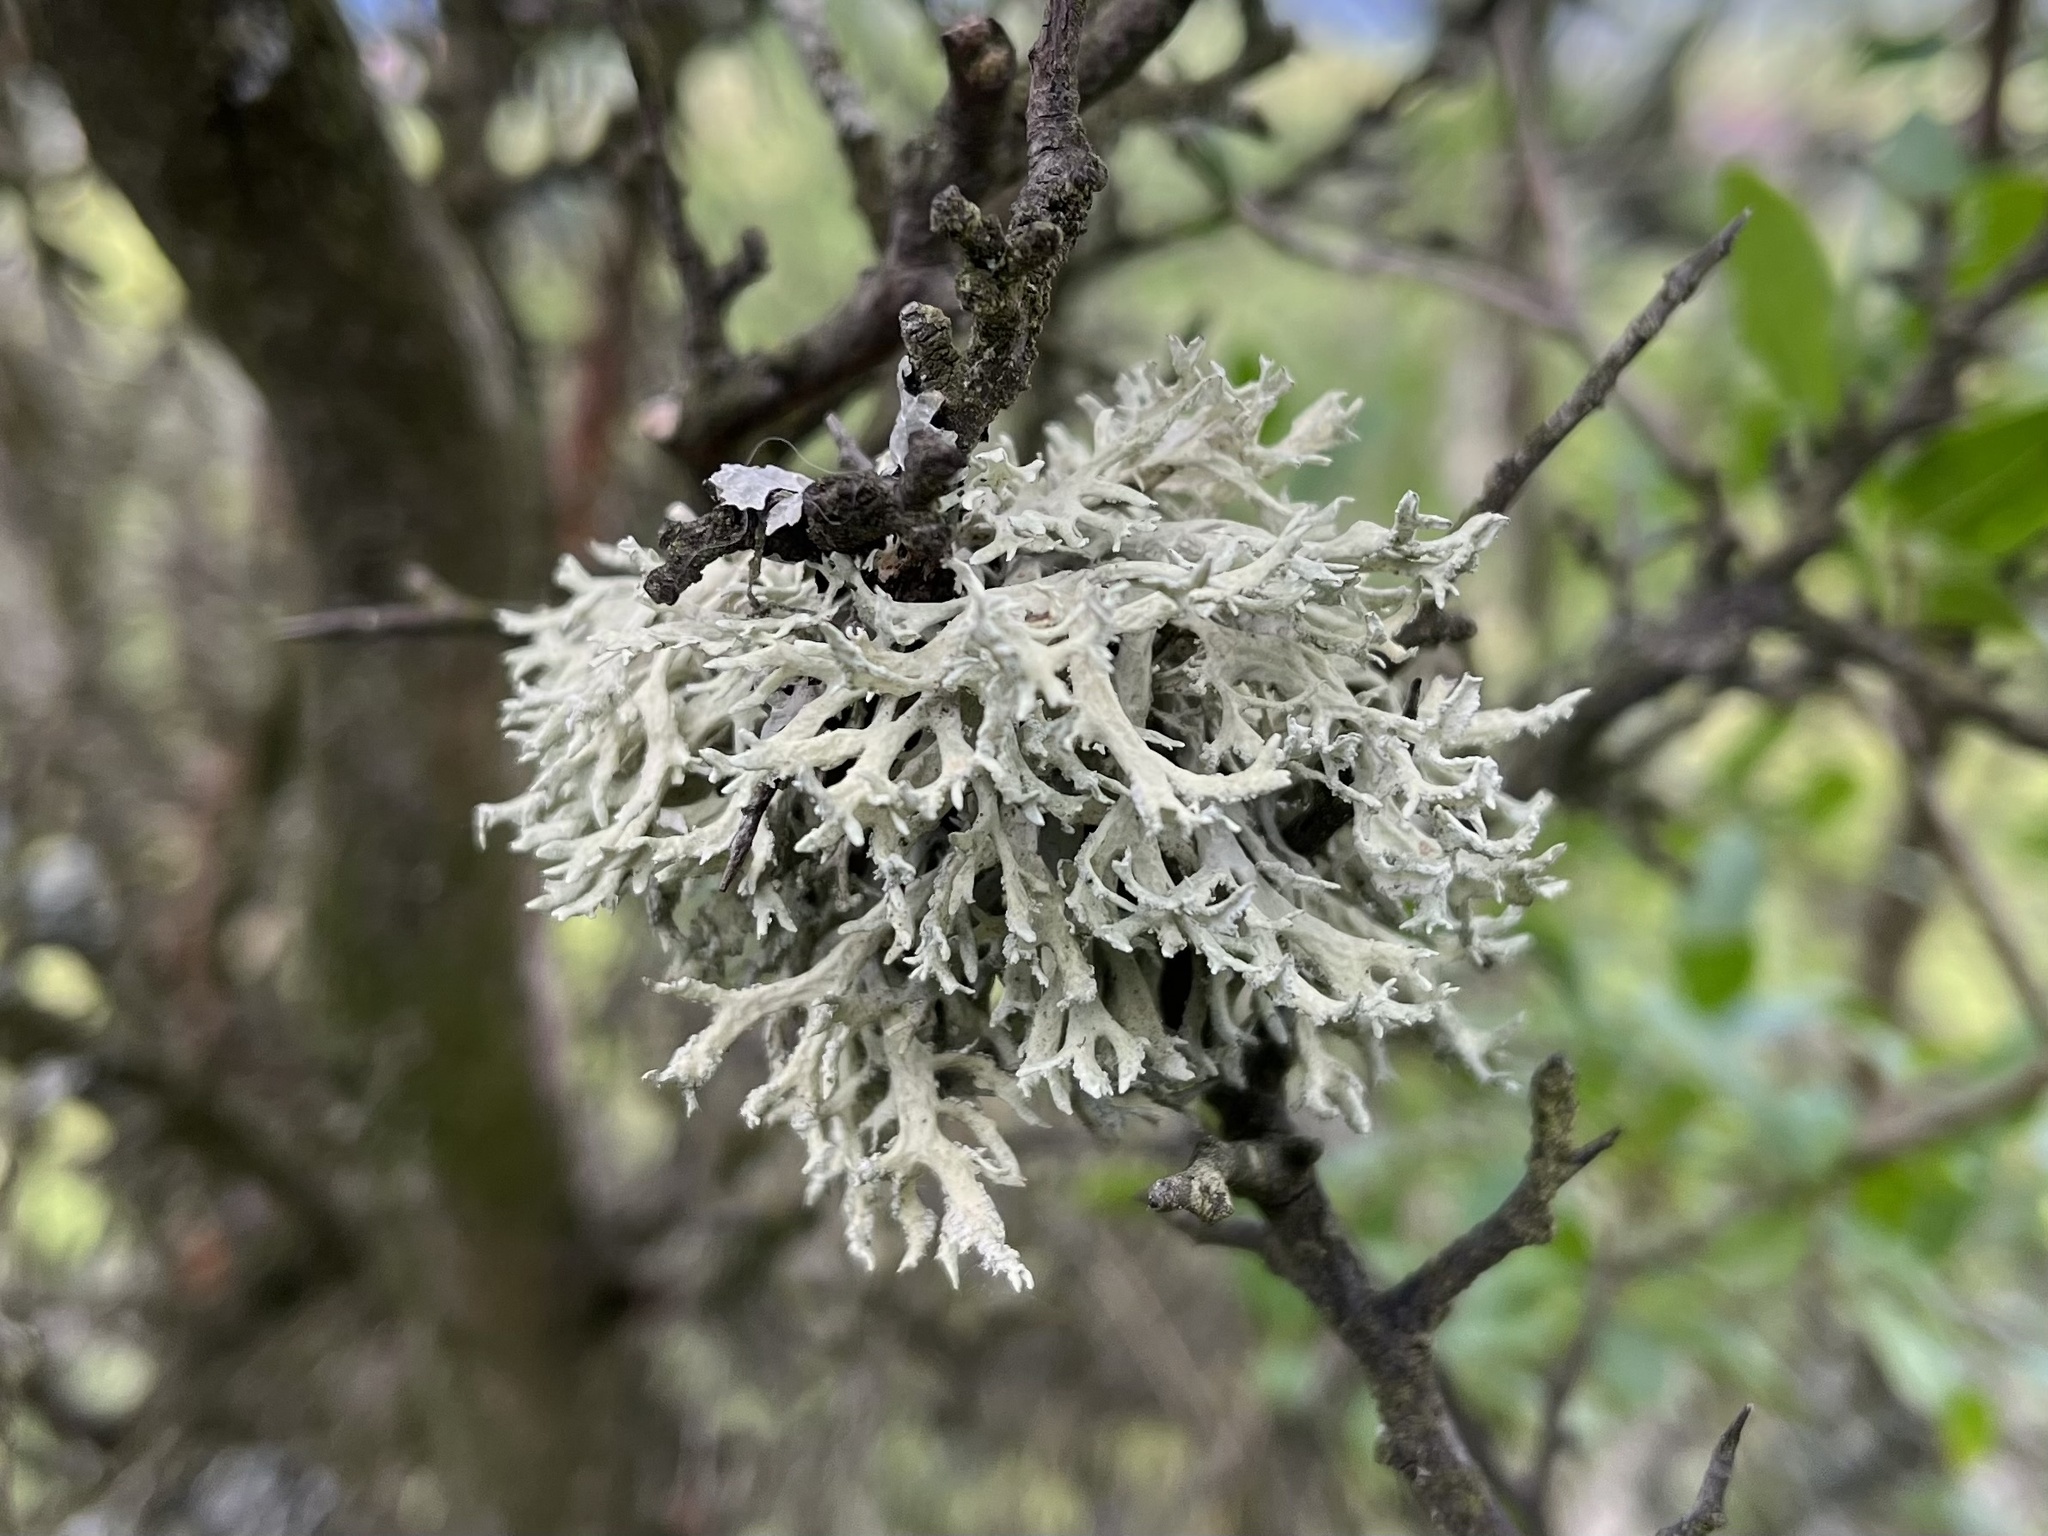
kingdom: Fungi
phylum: Ascomycota
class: Lecanoromycetes
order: Lecanorales
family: Parmeliaceae
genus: Evernia
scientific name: Evernia prunastri
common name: Oak moss
